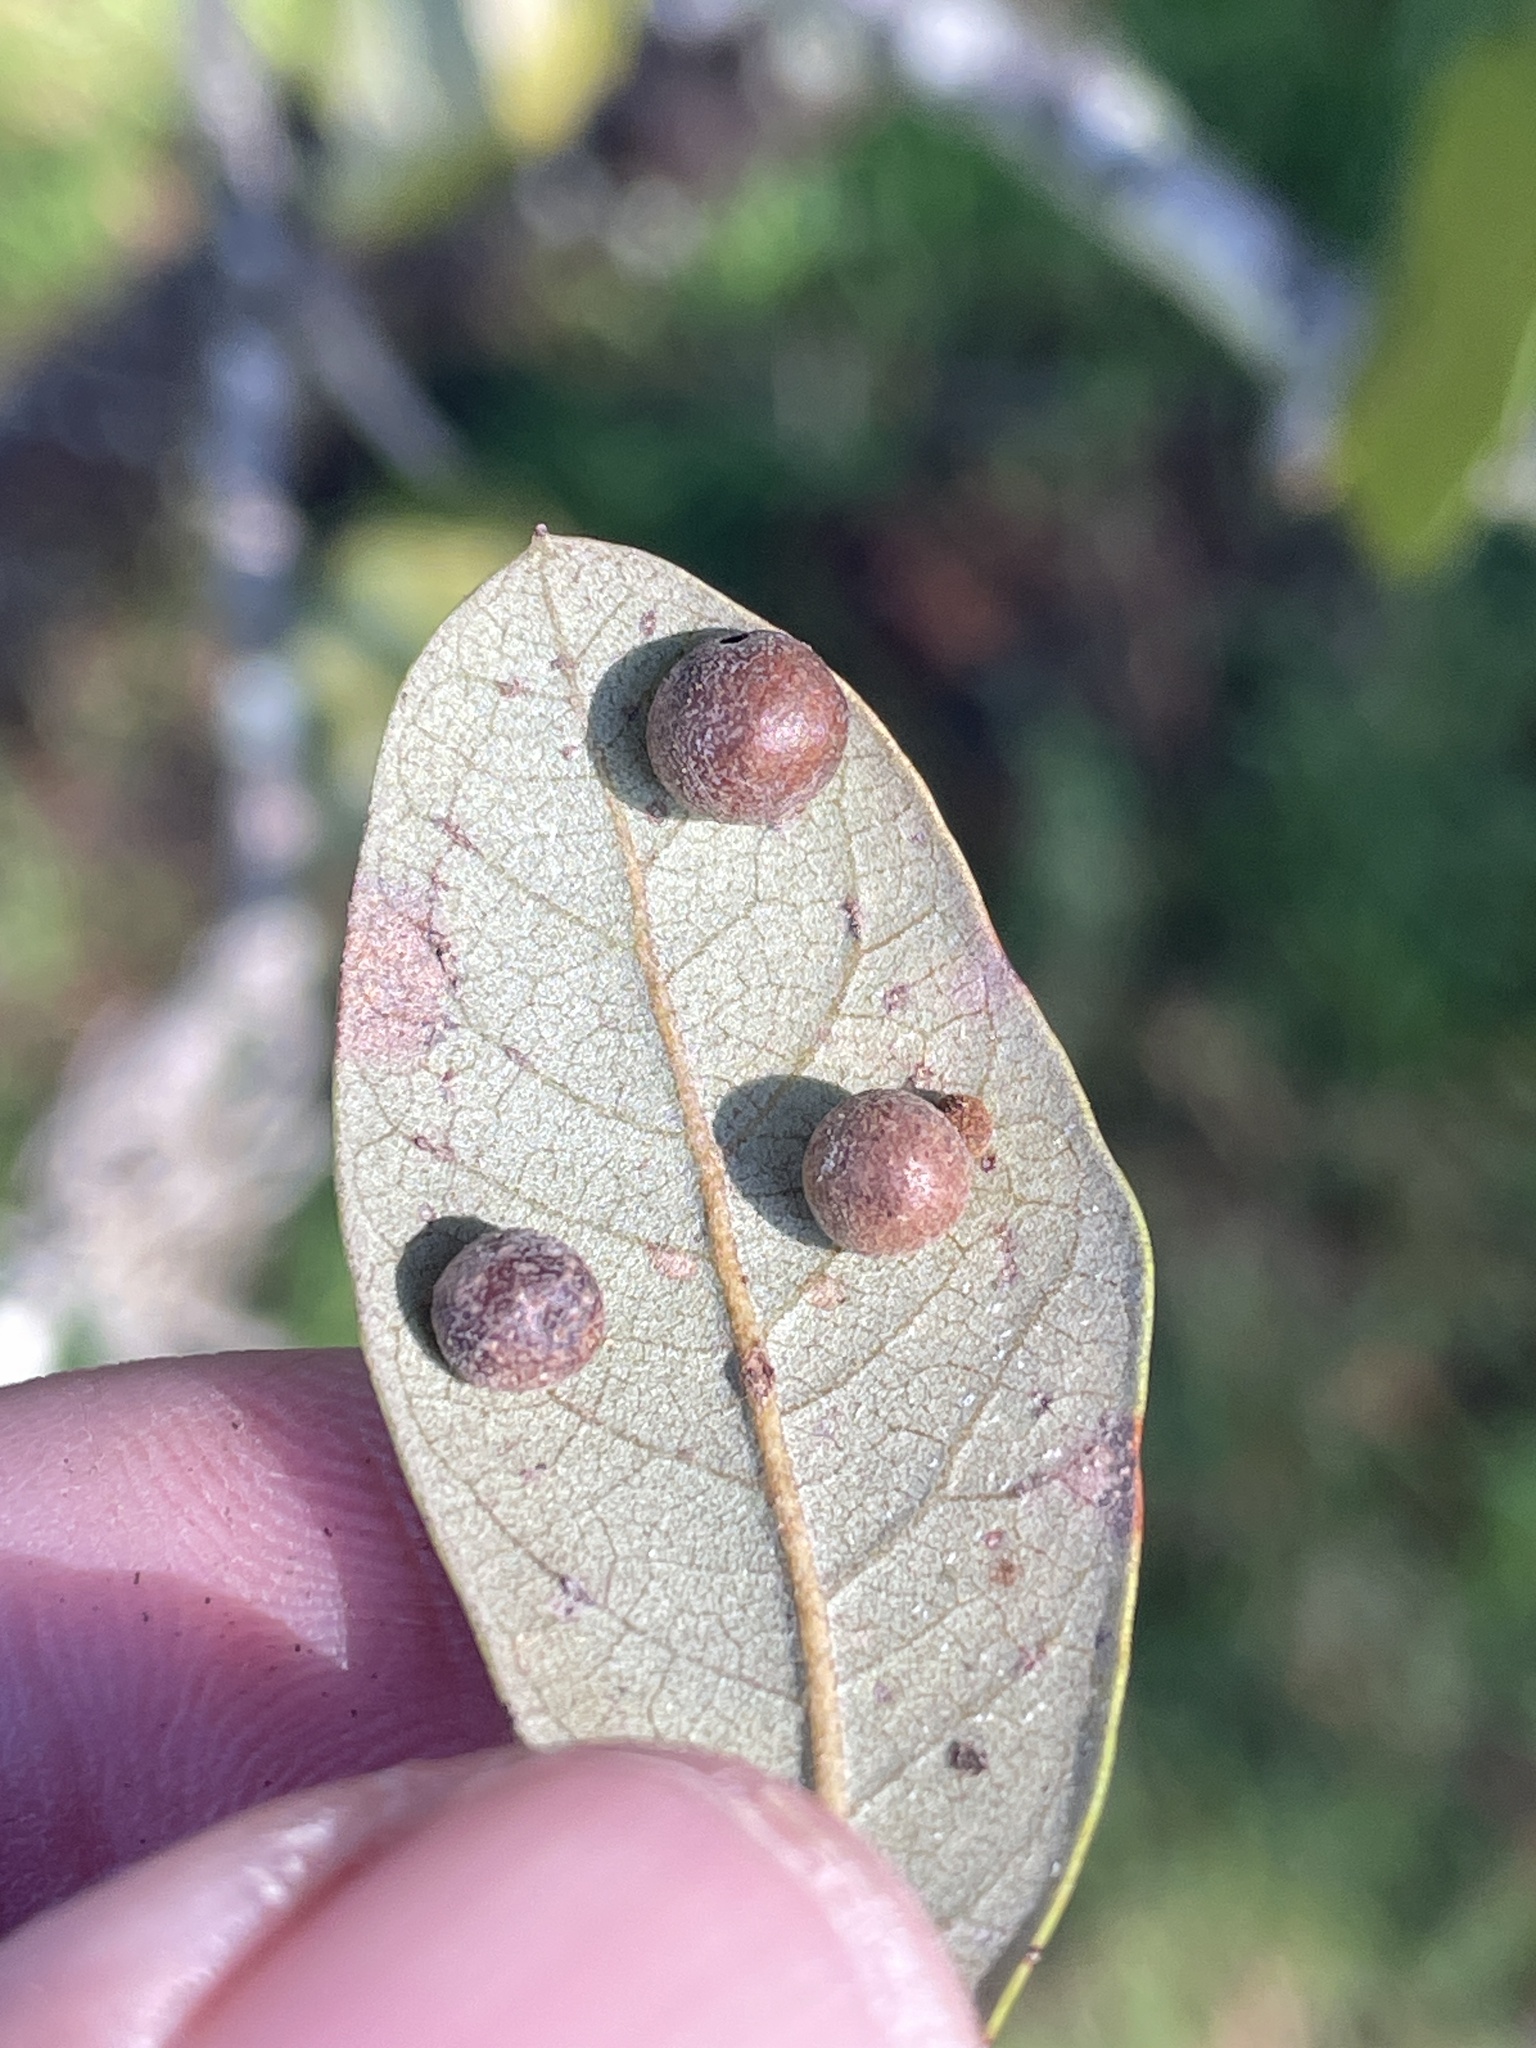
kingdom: Animalia
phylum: Arthropoda
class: Insecta
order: Hymenoptera
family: Cynipidae
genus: Belonocnema
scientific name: Belonocnema kinseyi
